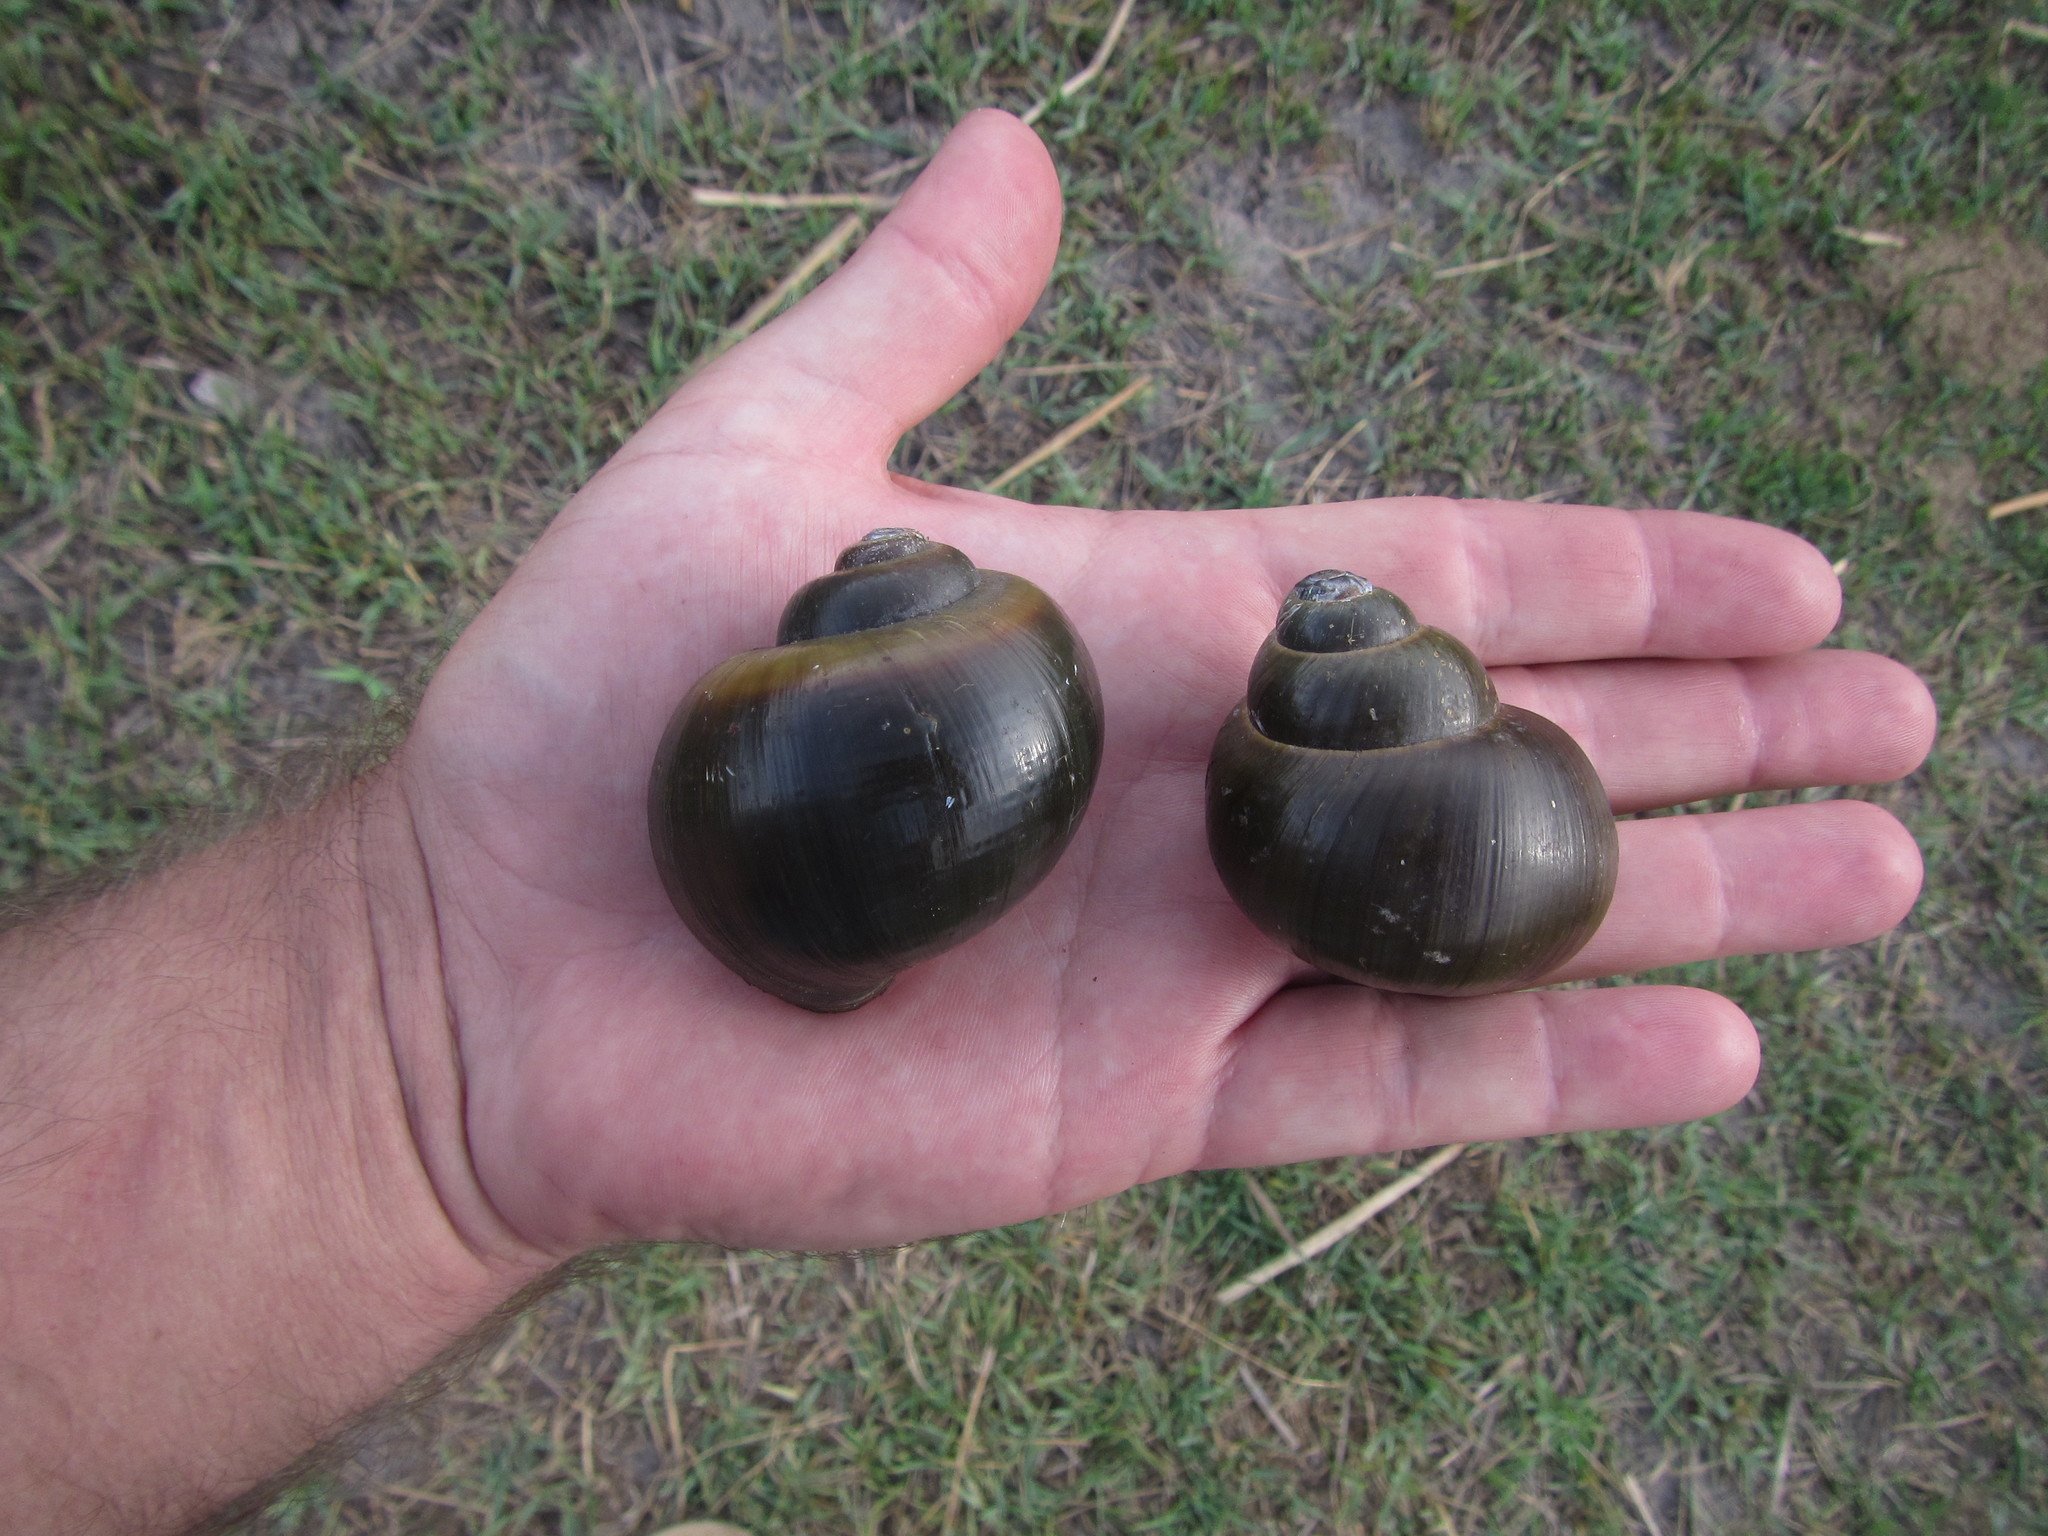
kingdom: Animalia
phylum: Mollusca
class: Gastropoda
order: Architaenioglossa
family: Ampullariidae
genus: Pila
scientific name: Pila occidentalis
